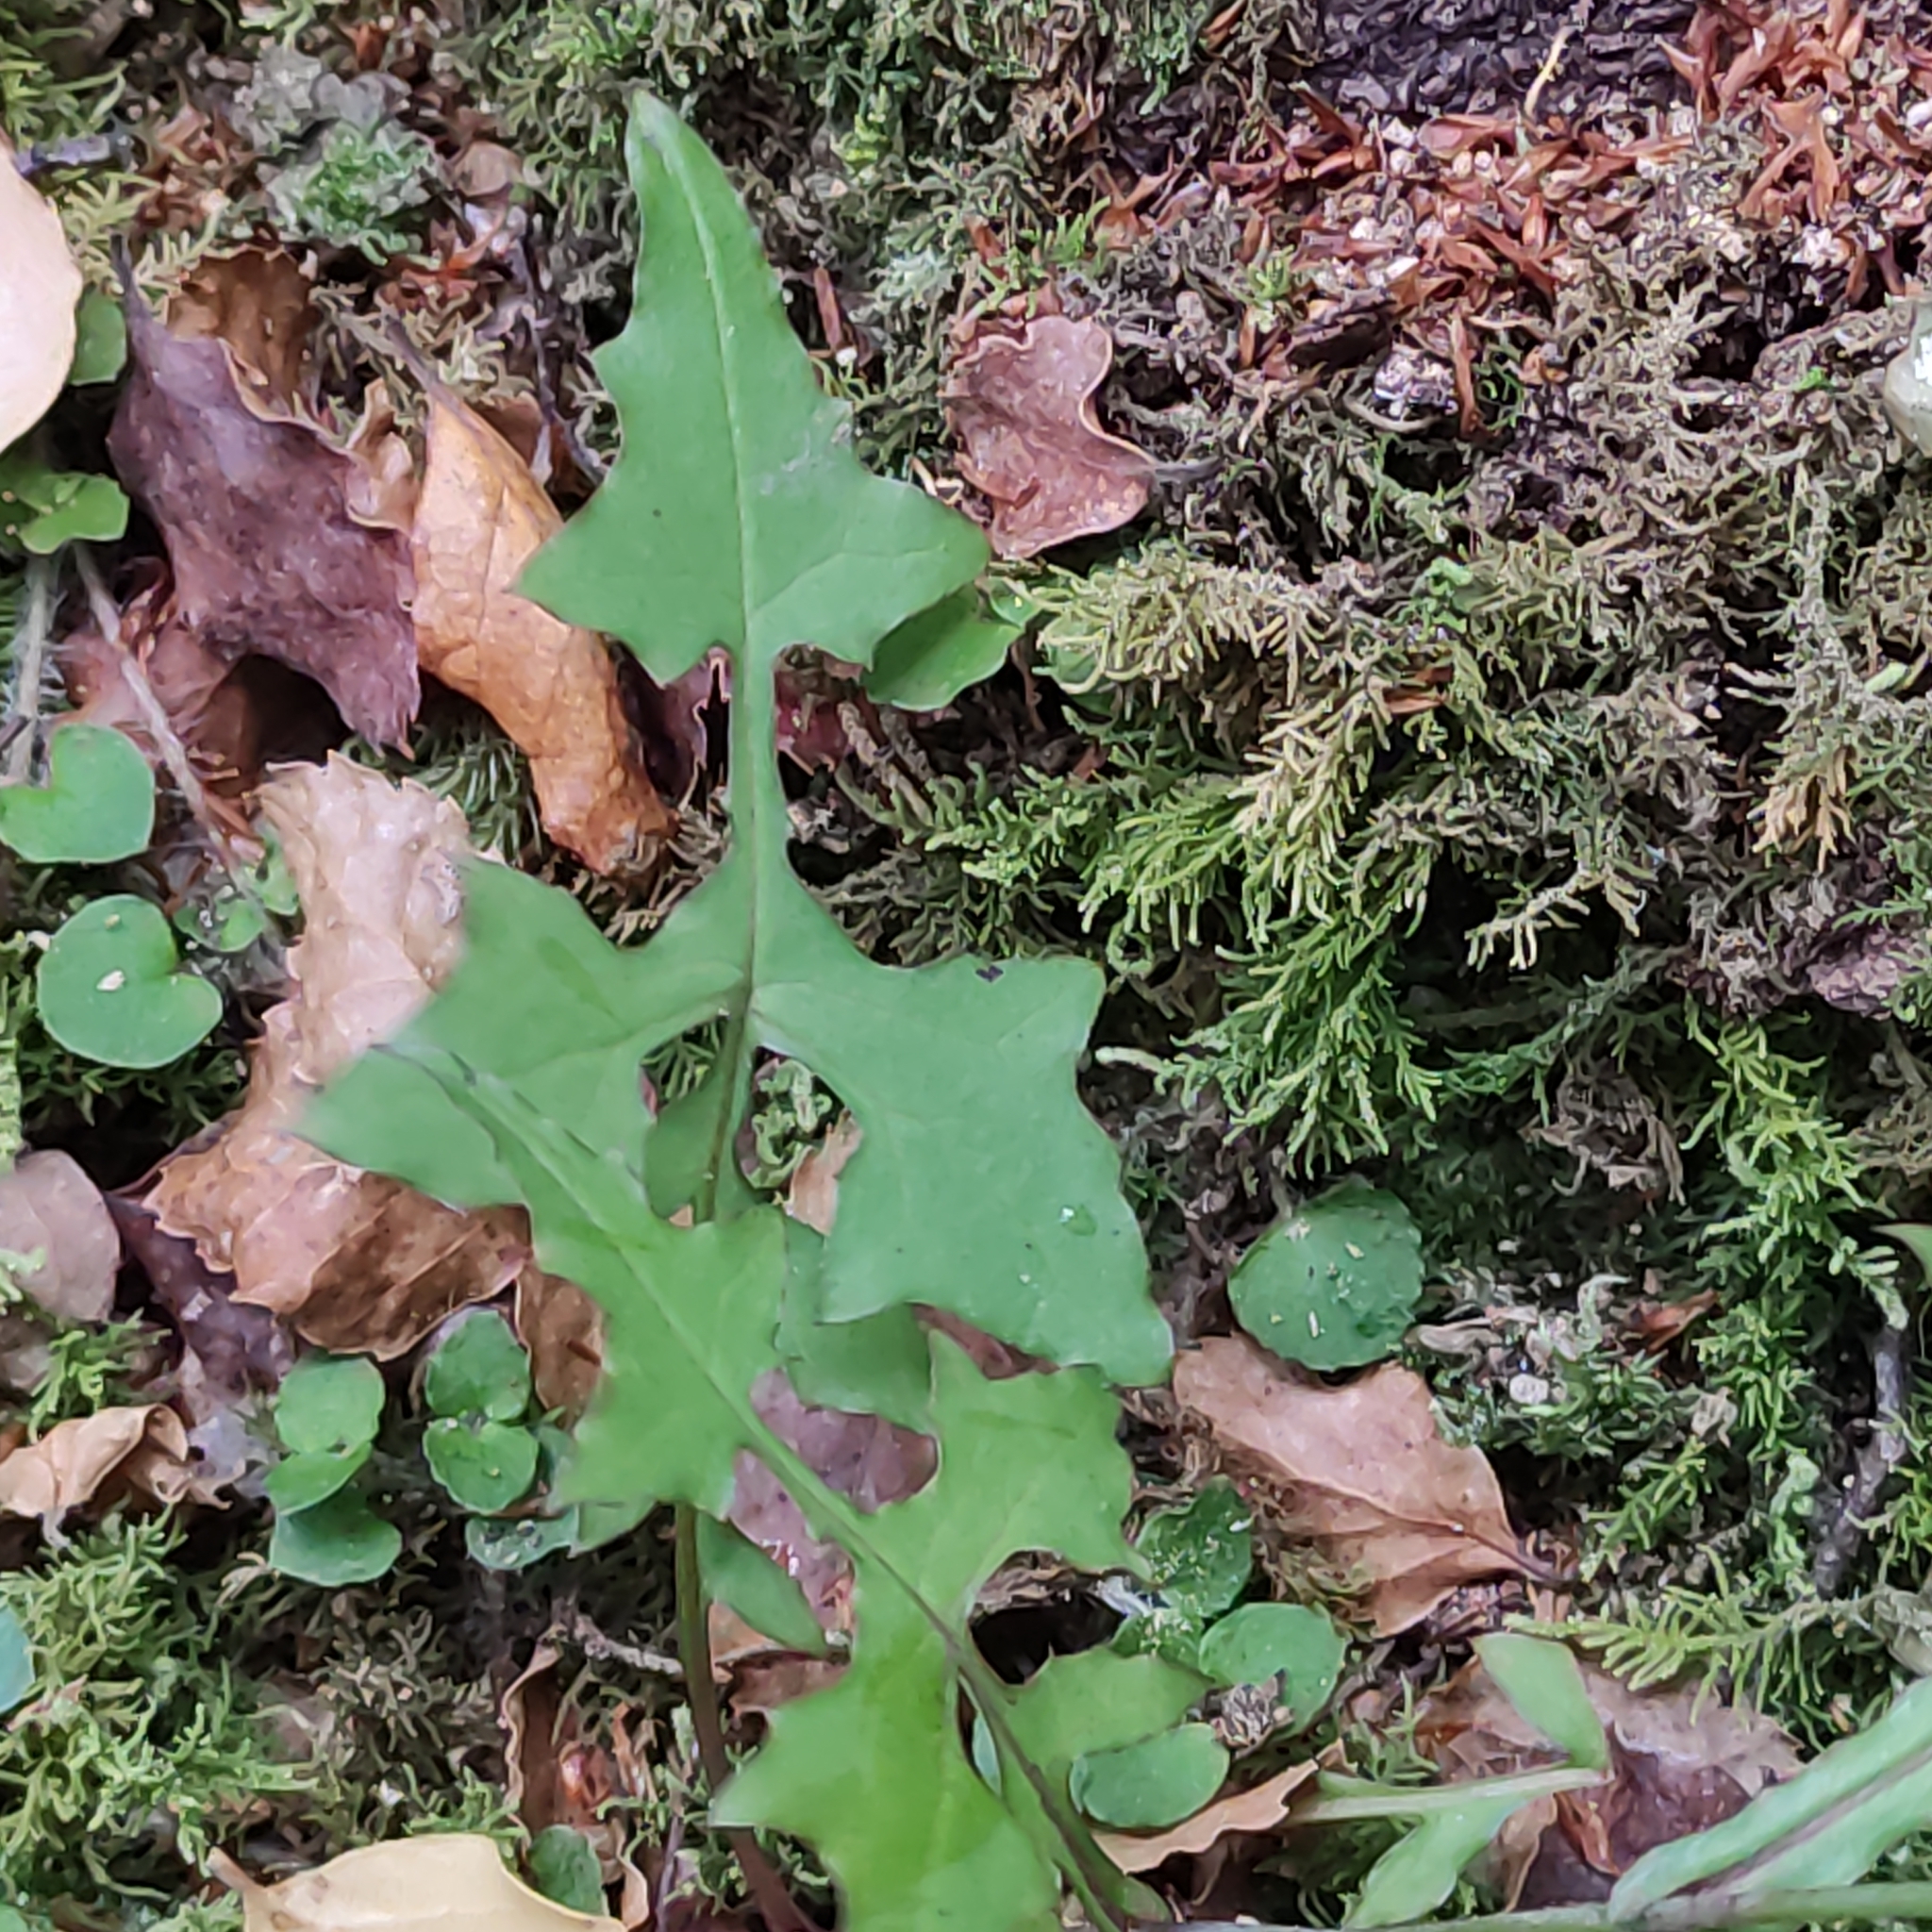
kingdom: Plantae
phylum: Tracheophyta
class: Magnoliopsida
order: Asterales
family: Asteraceae
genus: Mycelis
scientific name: Mycelis muralis
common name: Wall lettuce
